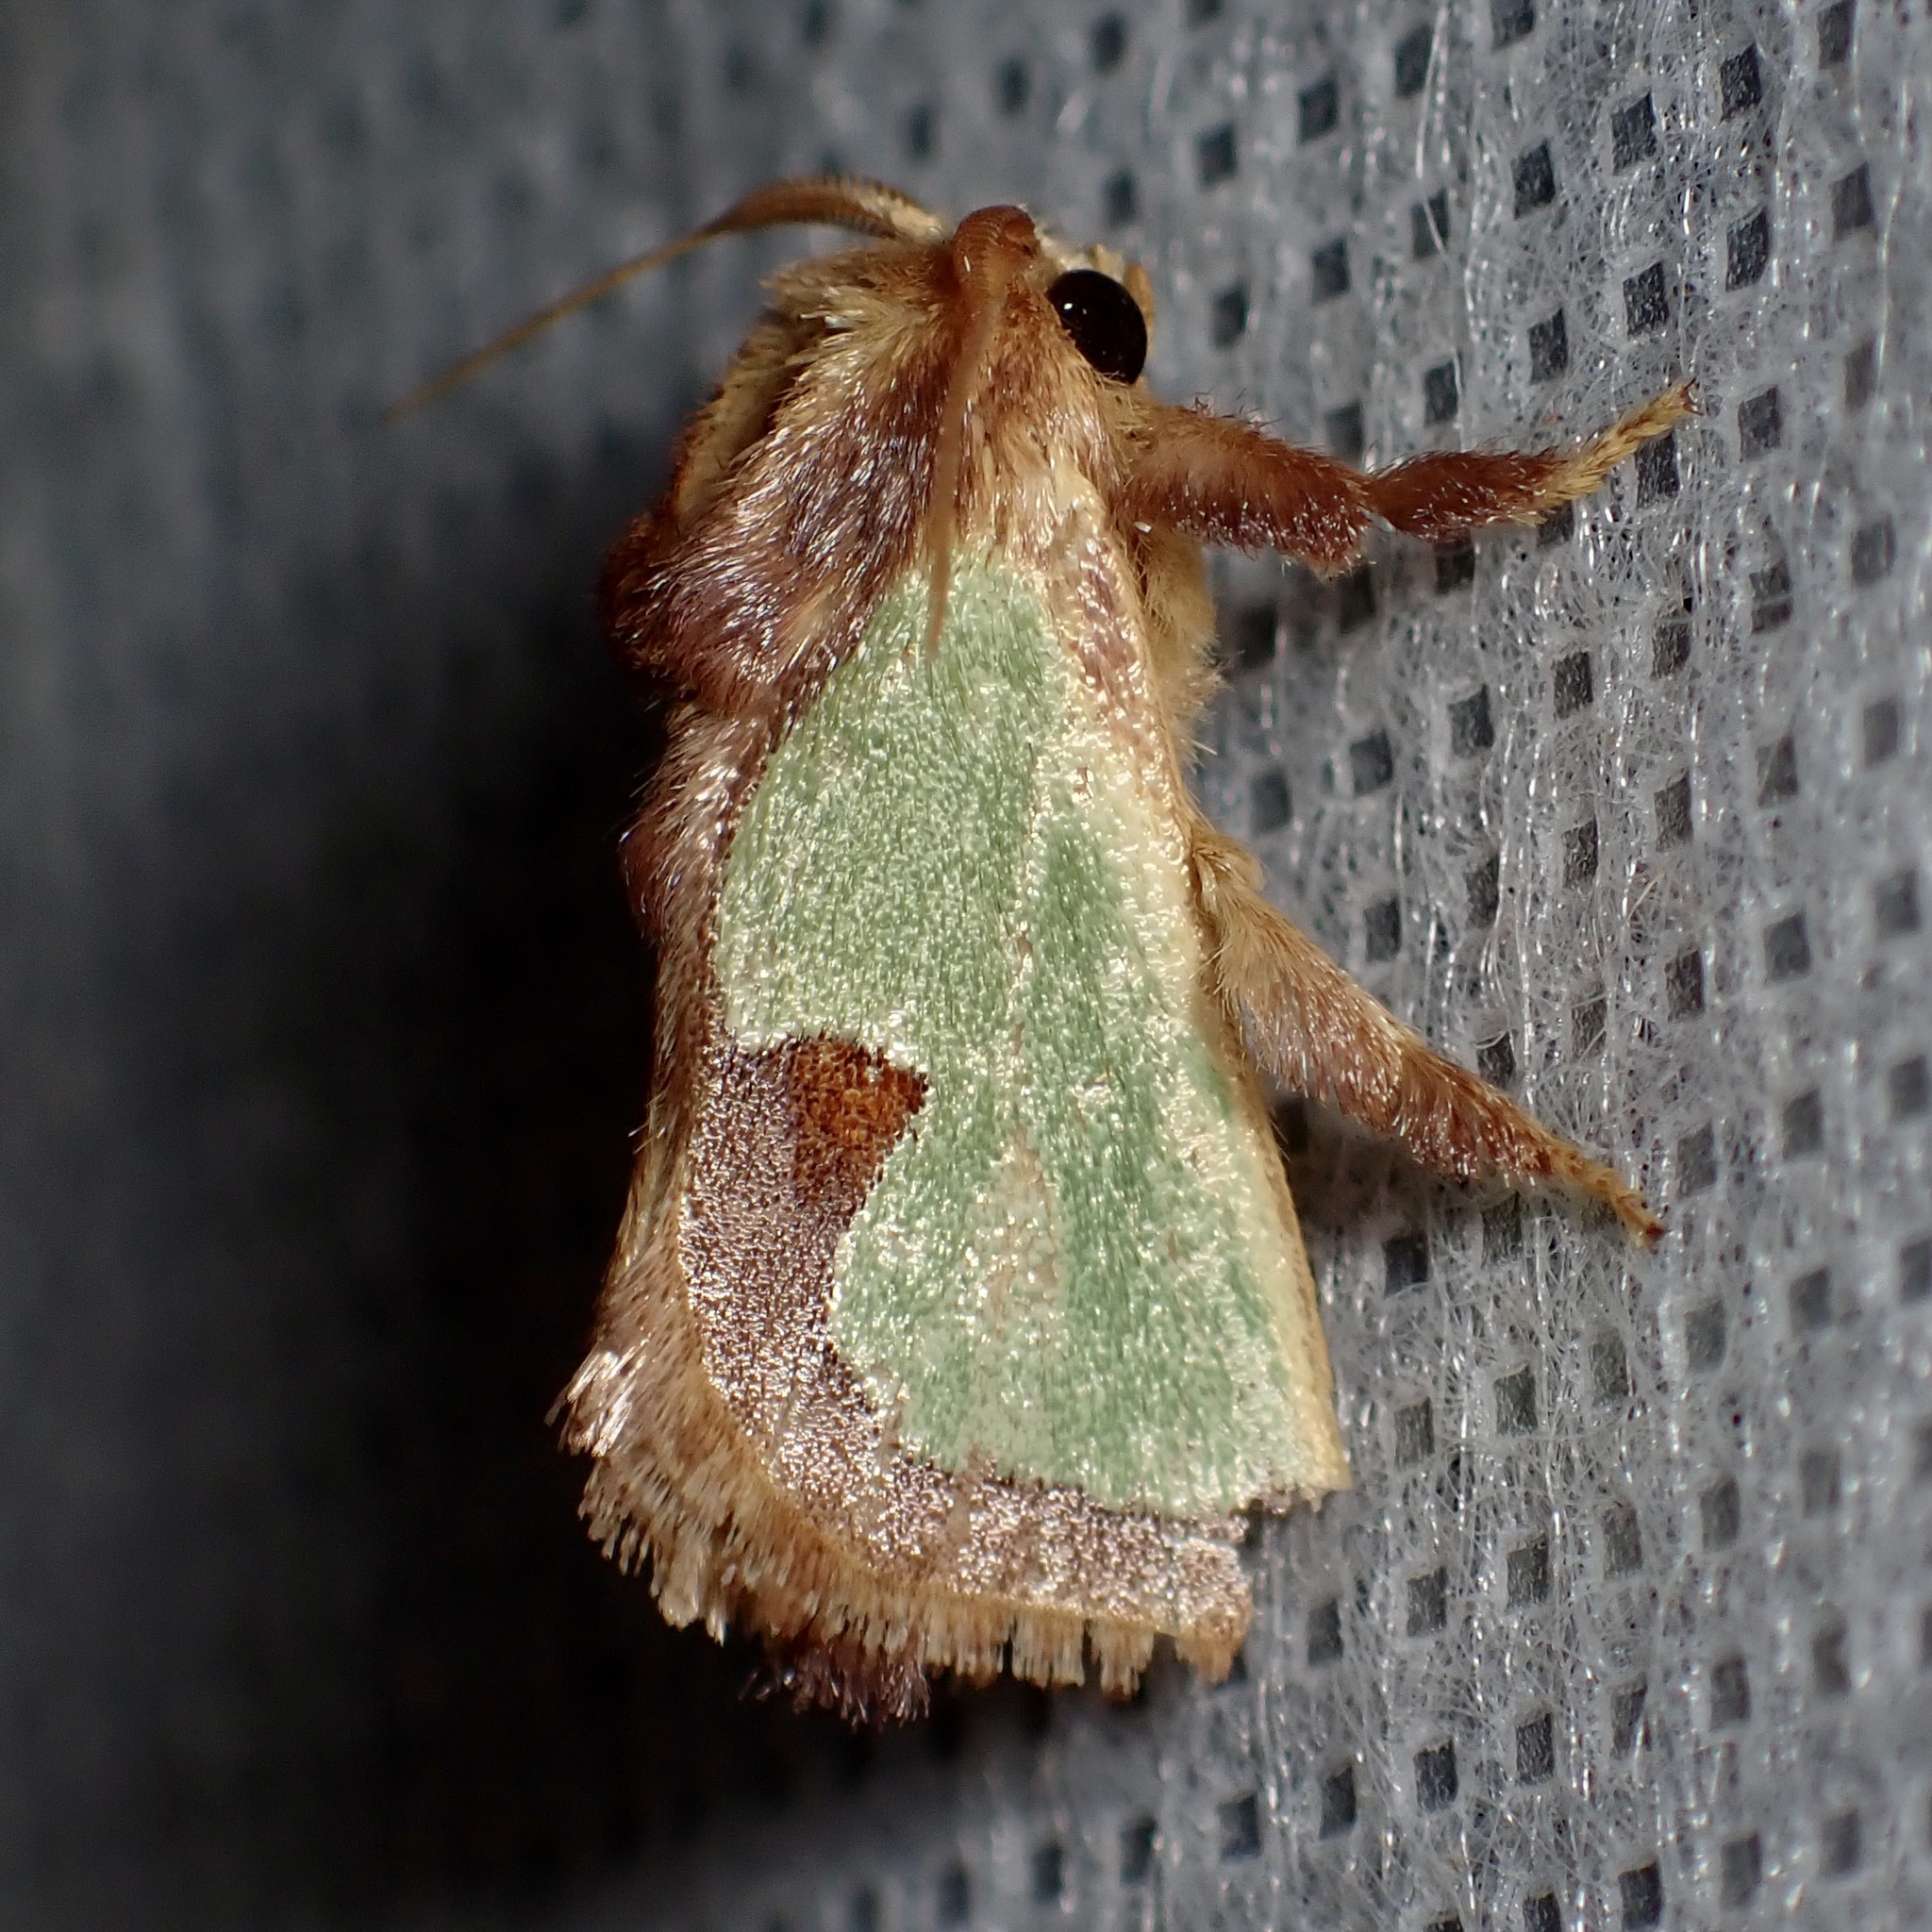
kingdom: Animalia
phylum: Arthropoda
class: Insecta
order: Lepidoptera
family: Limacodidae
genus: Euclea
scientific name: Euclea incisa
